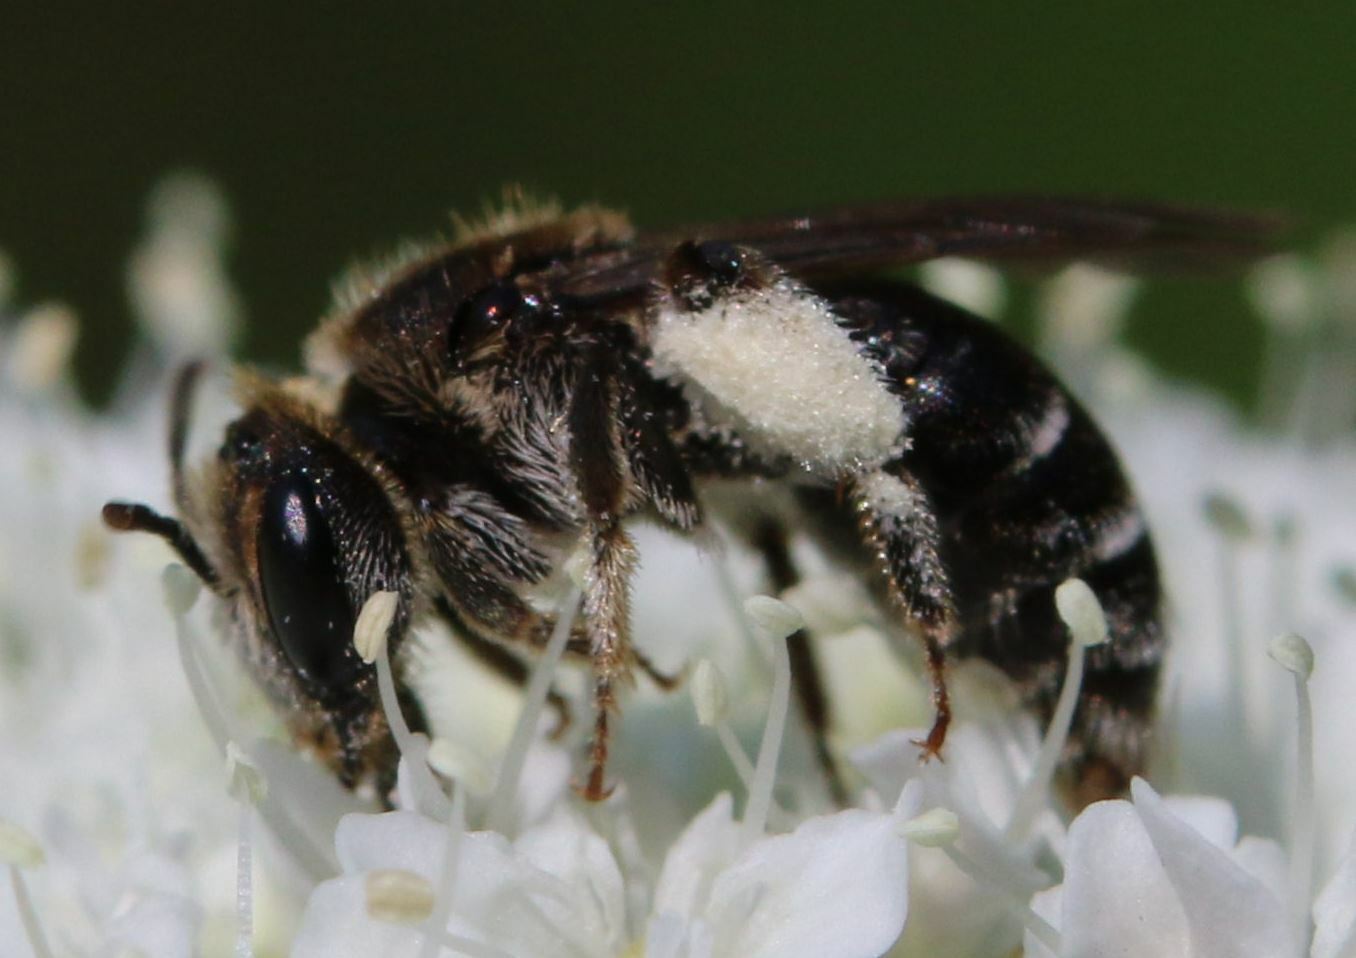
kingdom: Animalia
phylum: Arthropoda
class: Insecta
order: Hymenoptera
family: Andrenidae
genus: Andrena
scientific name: Andrena colletiformis
